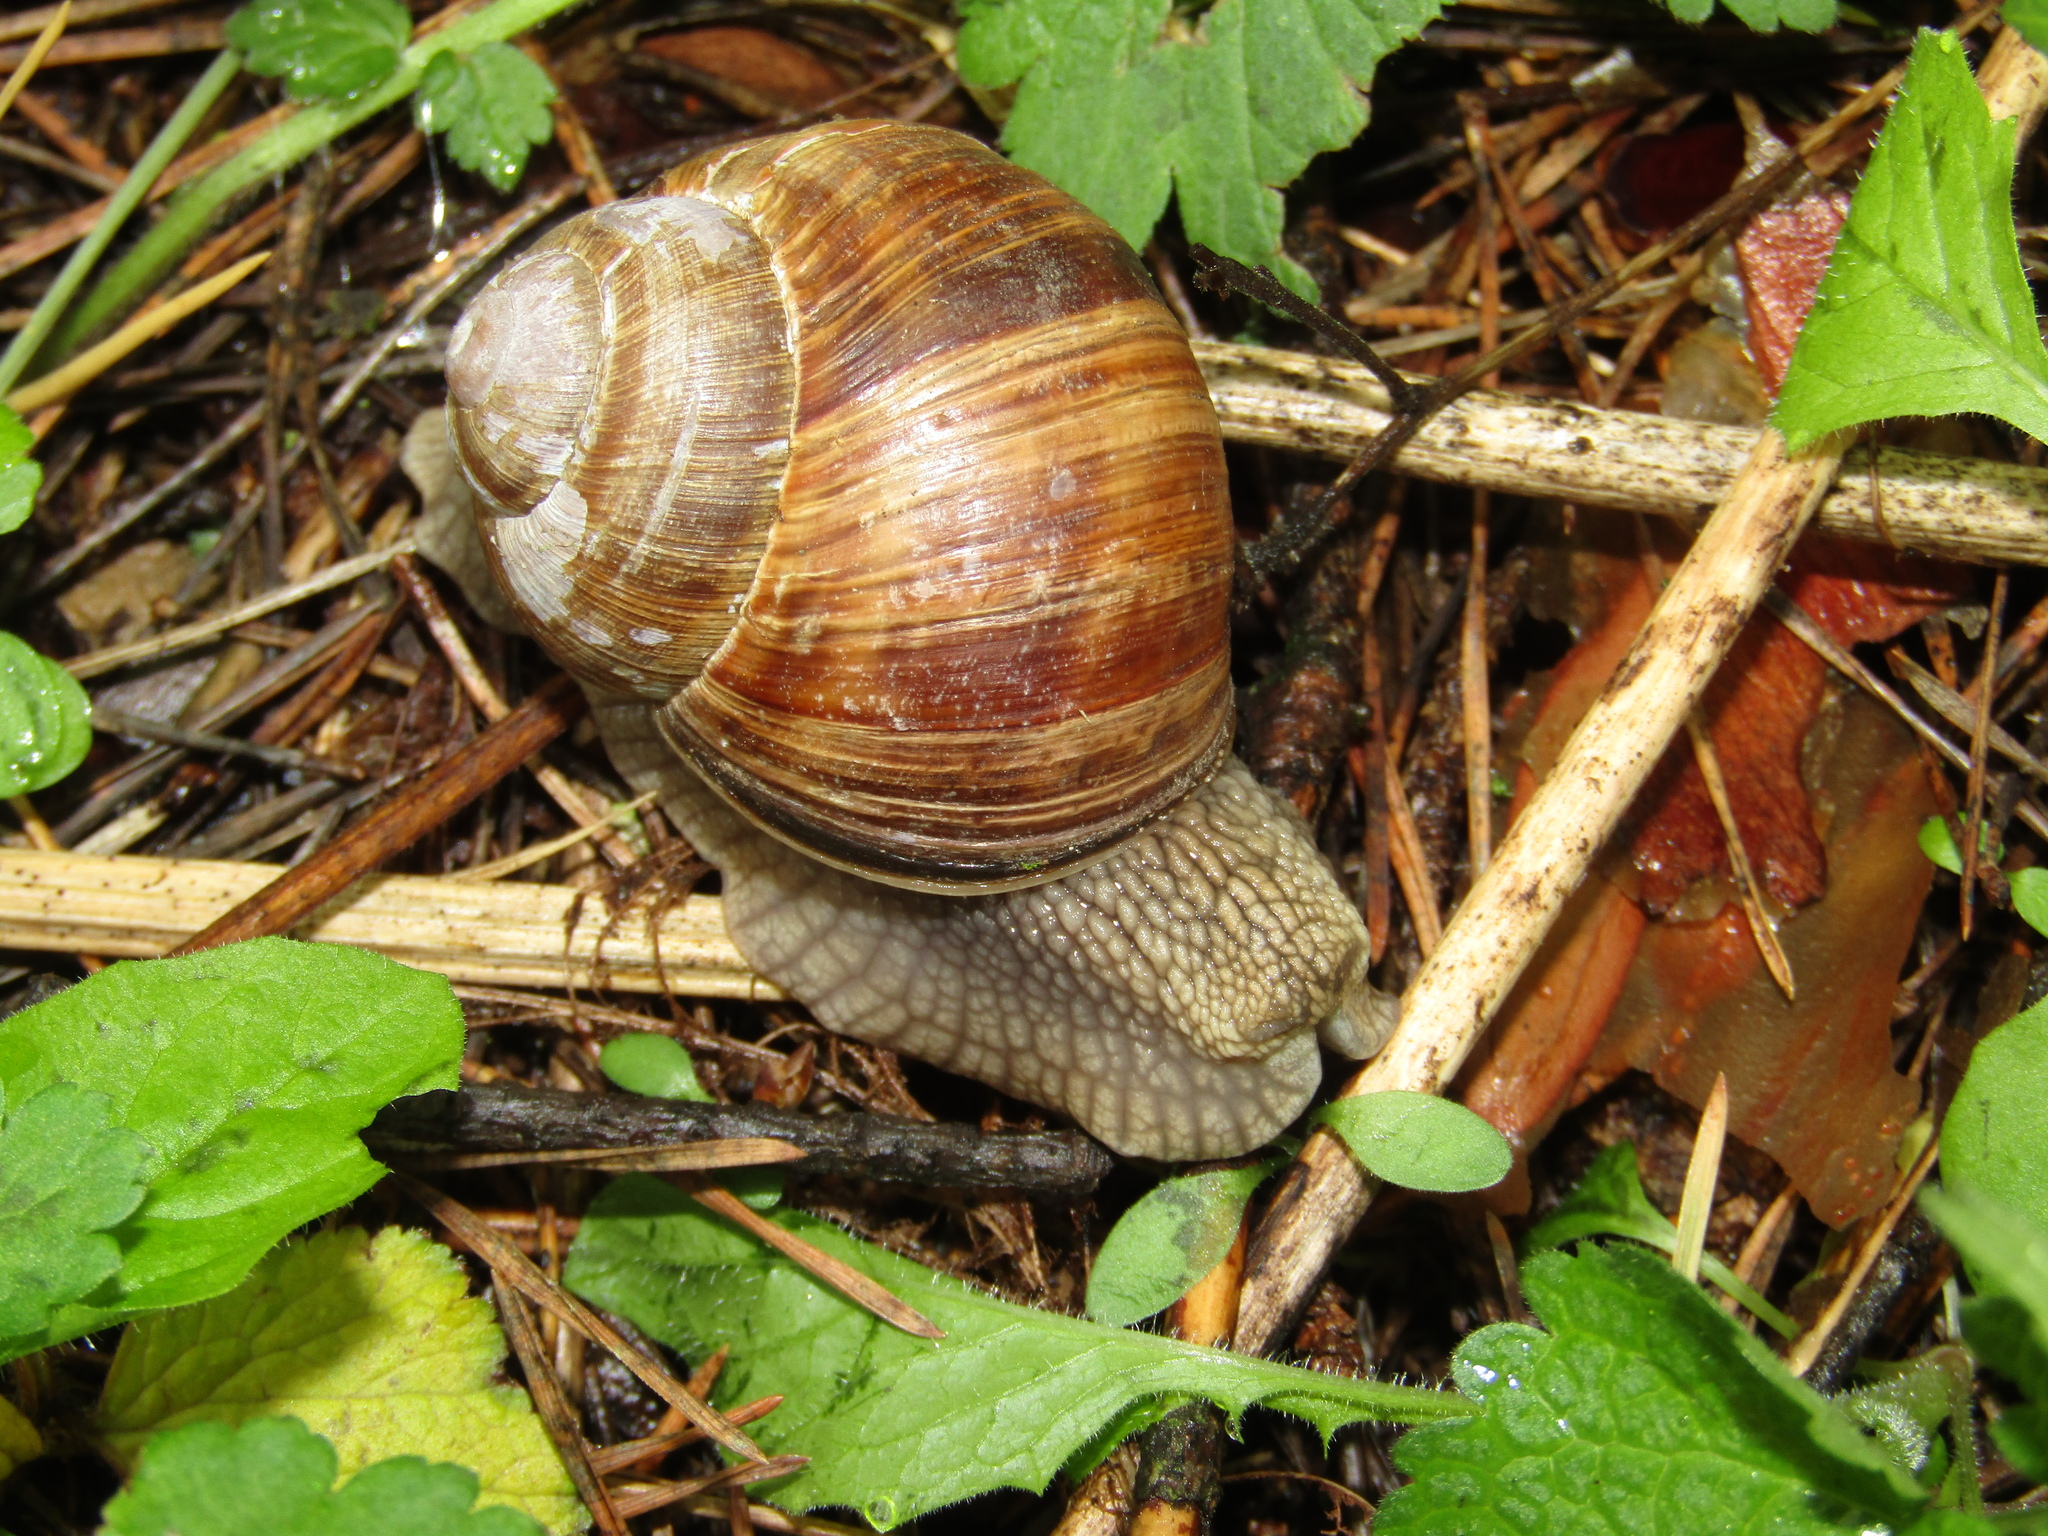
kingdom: Animalia
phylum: Mollusca
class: Gastropoda
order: Stylommatophora
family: Helicidae
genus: Helix
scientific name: Helix pomatia
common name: Roman snail
